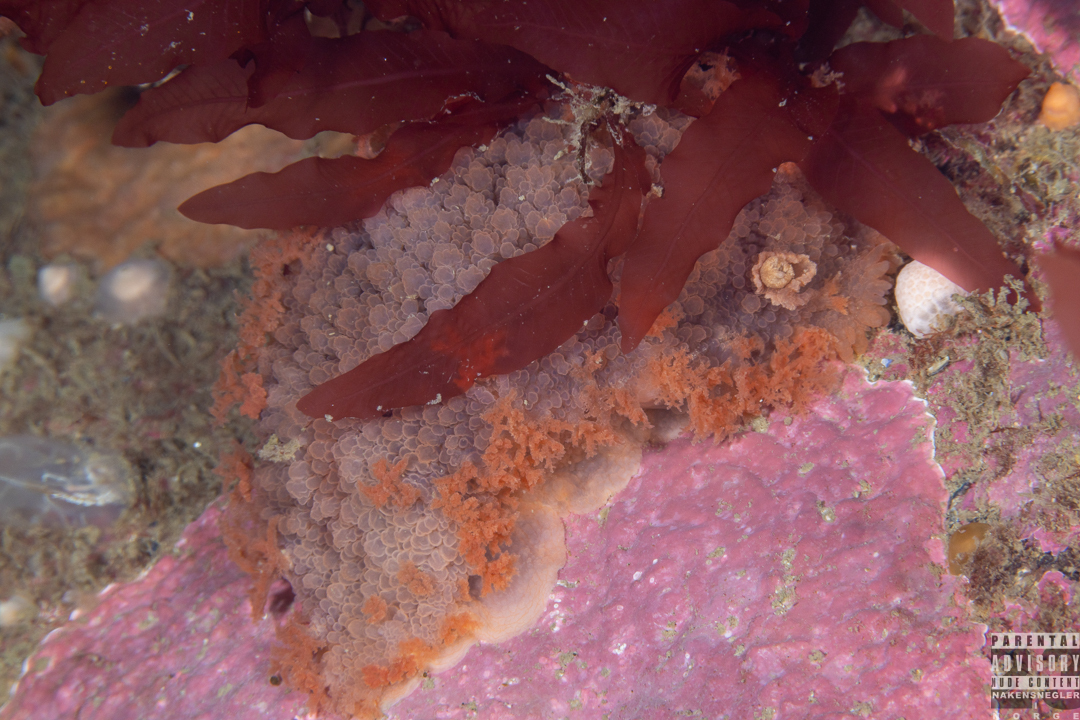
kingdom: Animalia
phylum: Mollusca
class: Gastropoda
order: Nudibranchia
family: Tritoniidae
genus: Tritonia
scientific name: Tritonia hombergii
